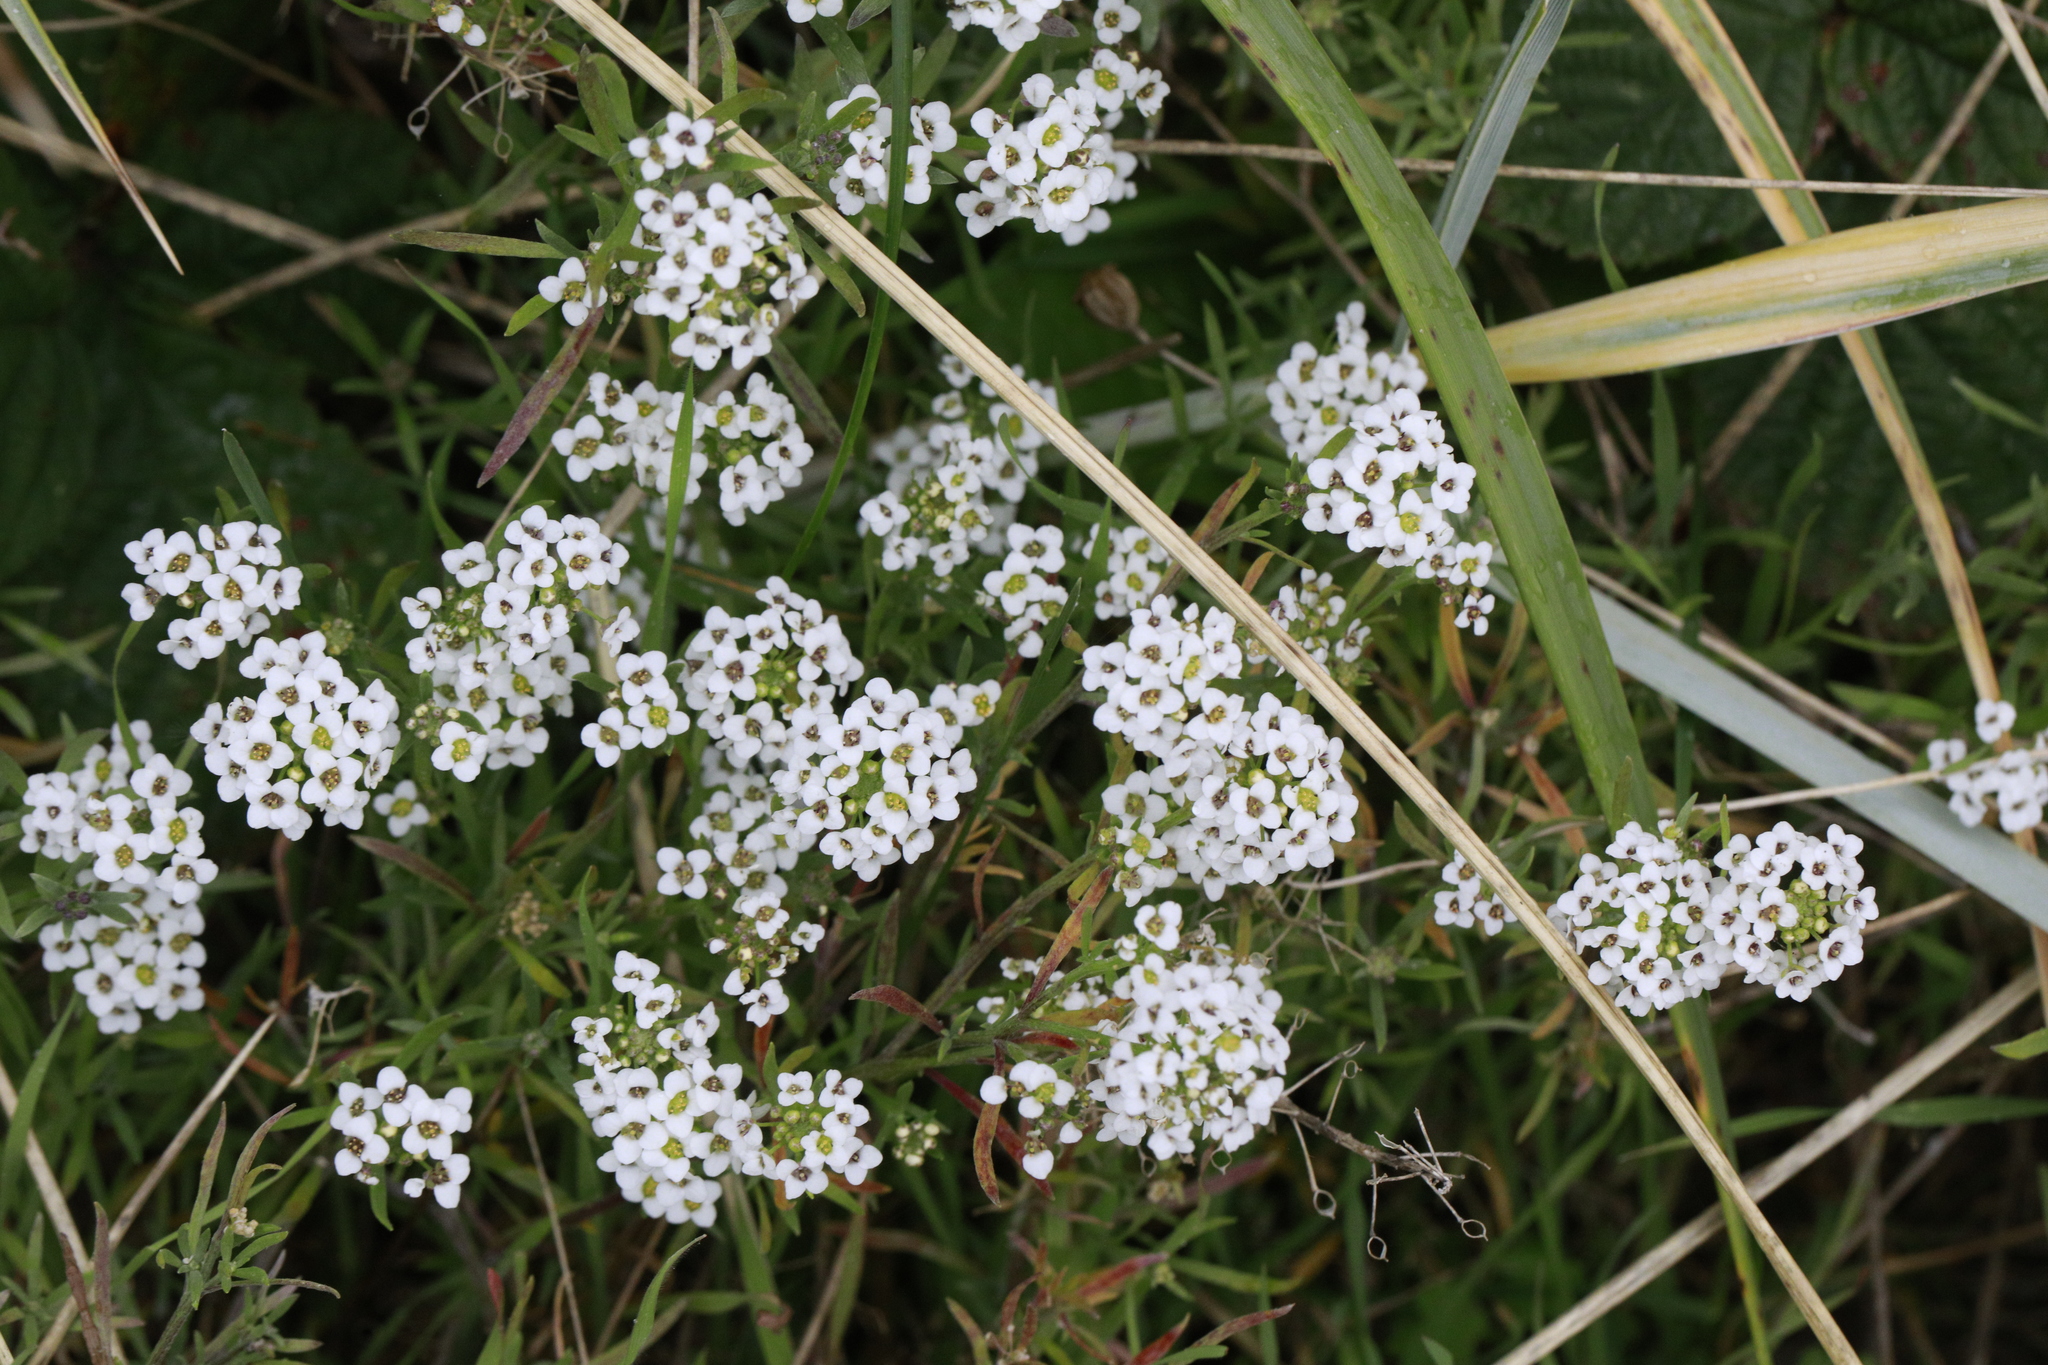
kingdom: Plantae
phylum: Tracheophyta
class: Magnoliopsida
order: Brassicales
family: Brassicaceae
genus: Lobularia
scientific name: Lobularia maritima
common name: Sweet alison
